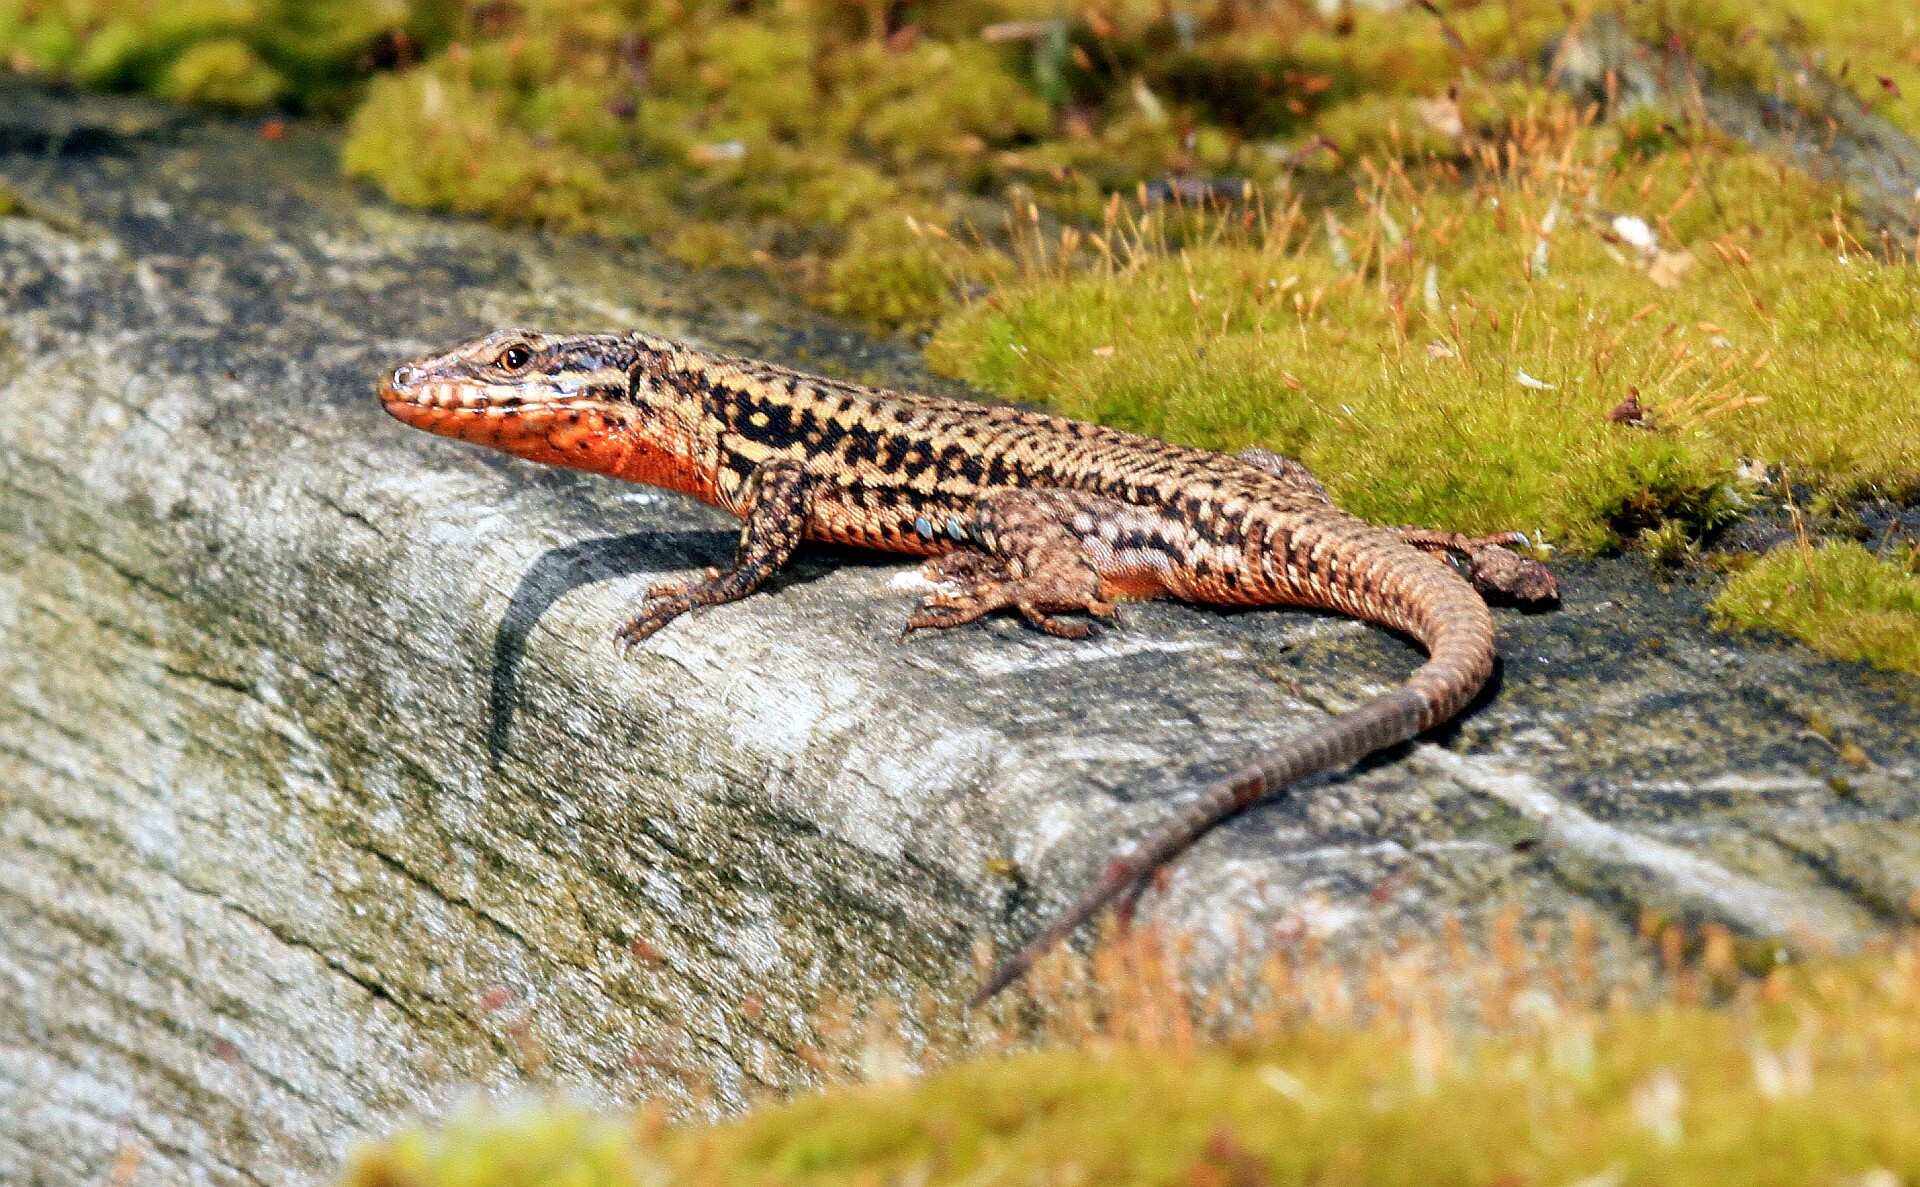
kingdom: Animalia
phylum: Chordata
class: Squamata
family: Lacertidae
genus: Podarcis
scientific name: Podarcis muralis
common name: Common wall lizard
